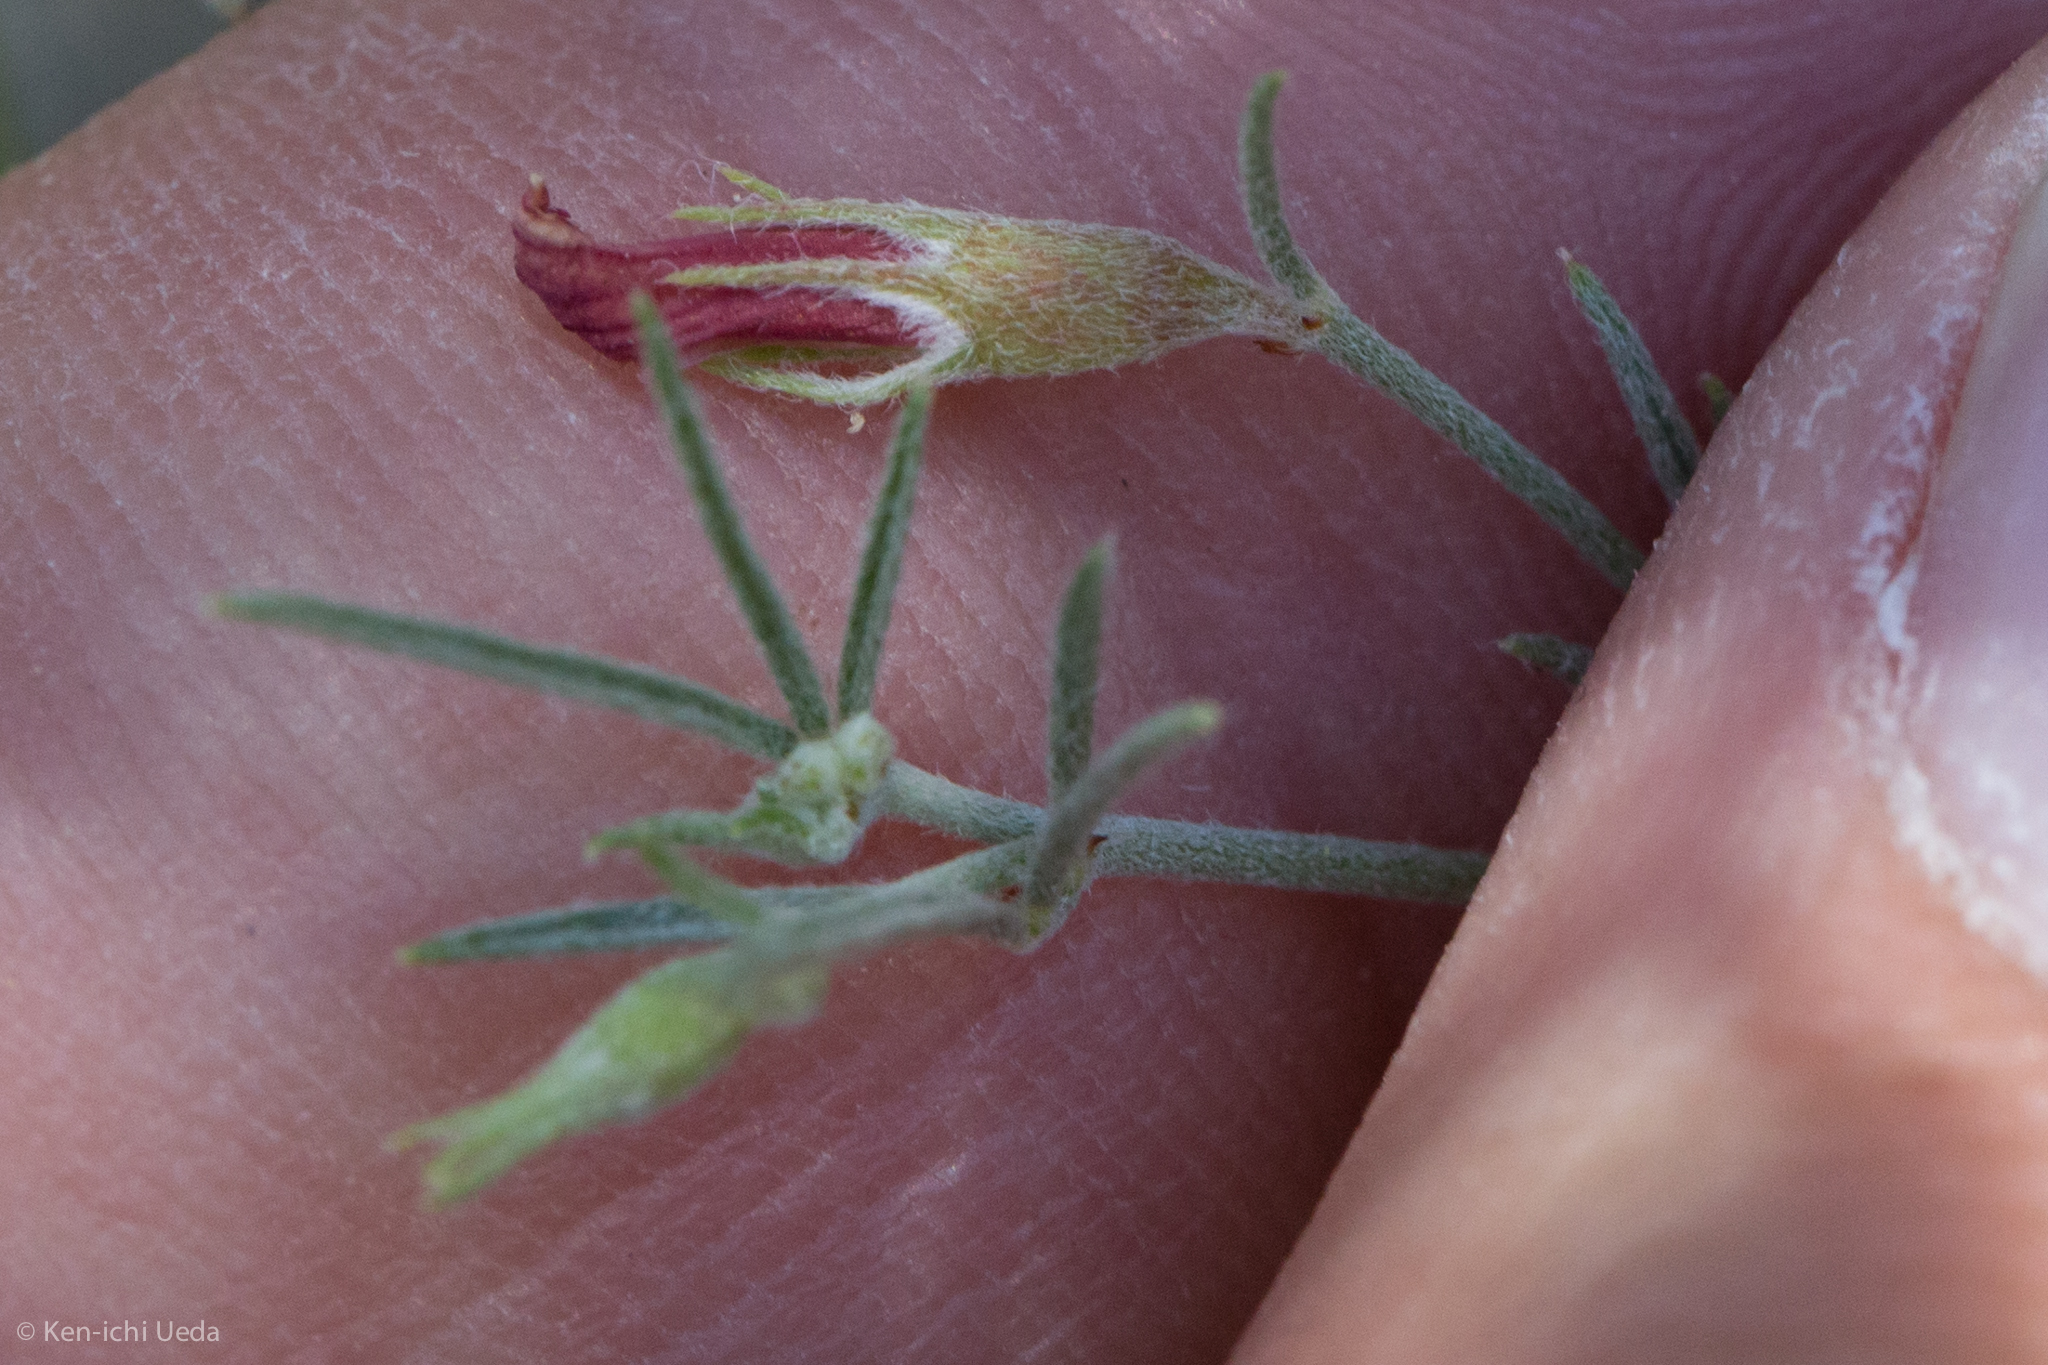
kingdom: Plantae
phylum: Tracheophyta
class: Magnoliopsida
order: Fabales
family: Fabaceae
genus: Acmispon
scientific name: Acmispon oroboides
